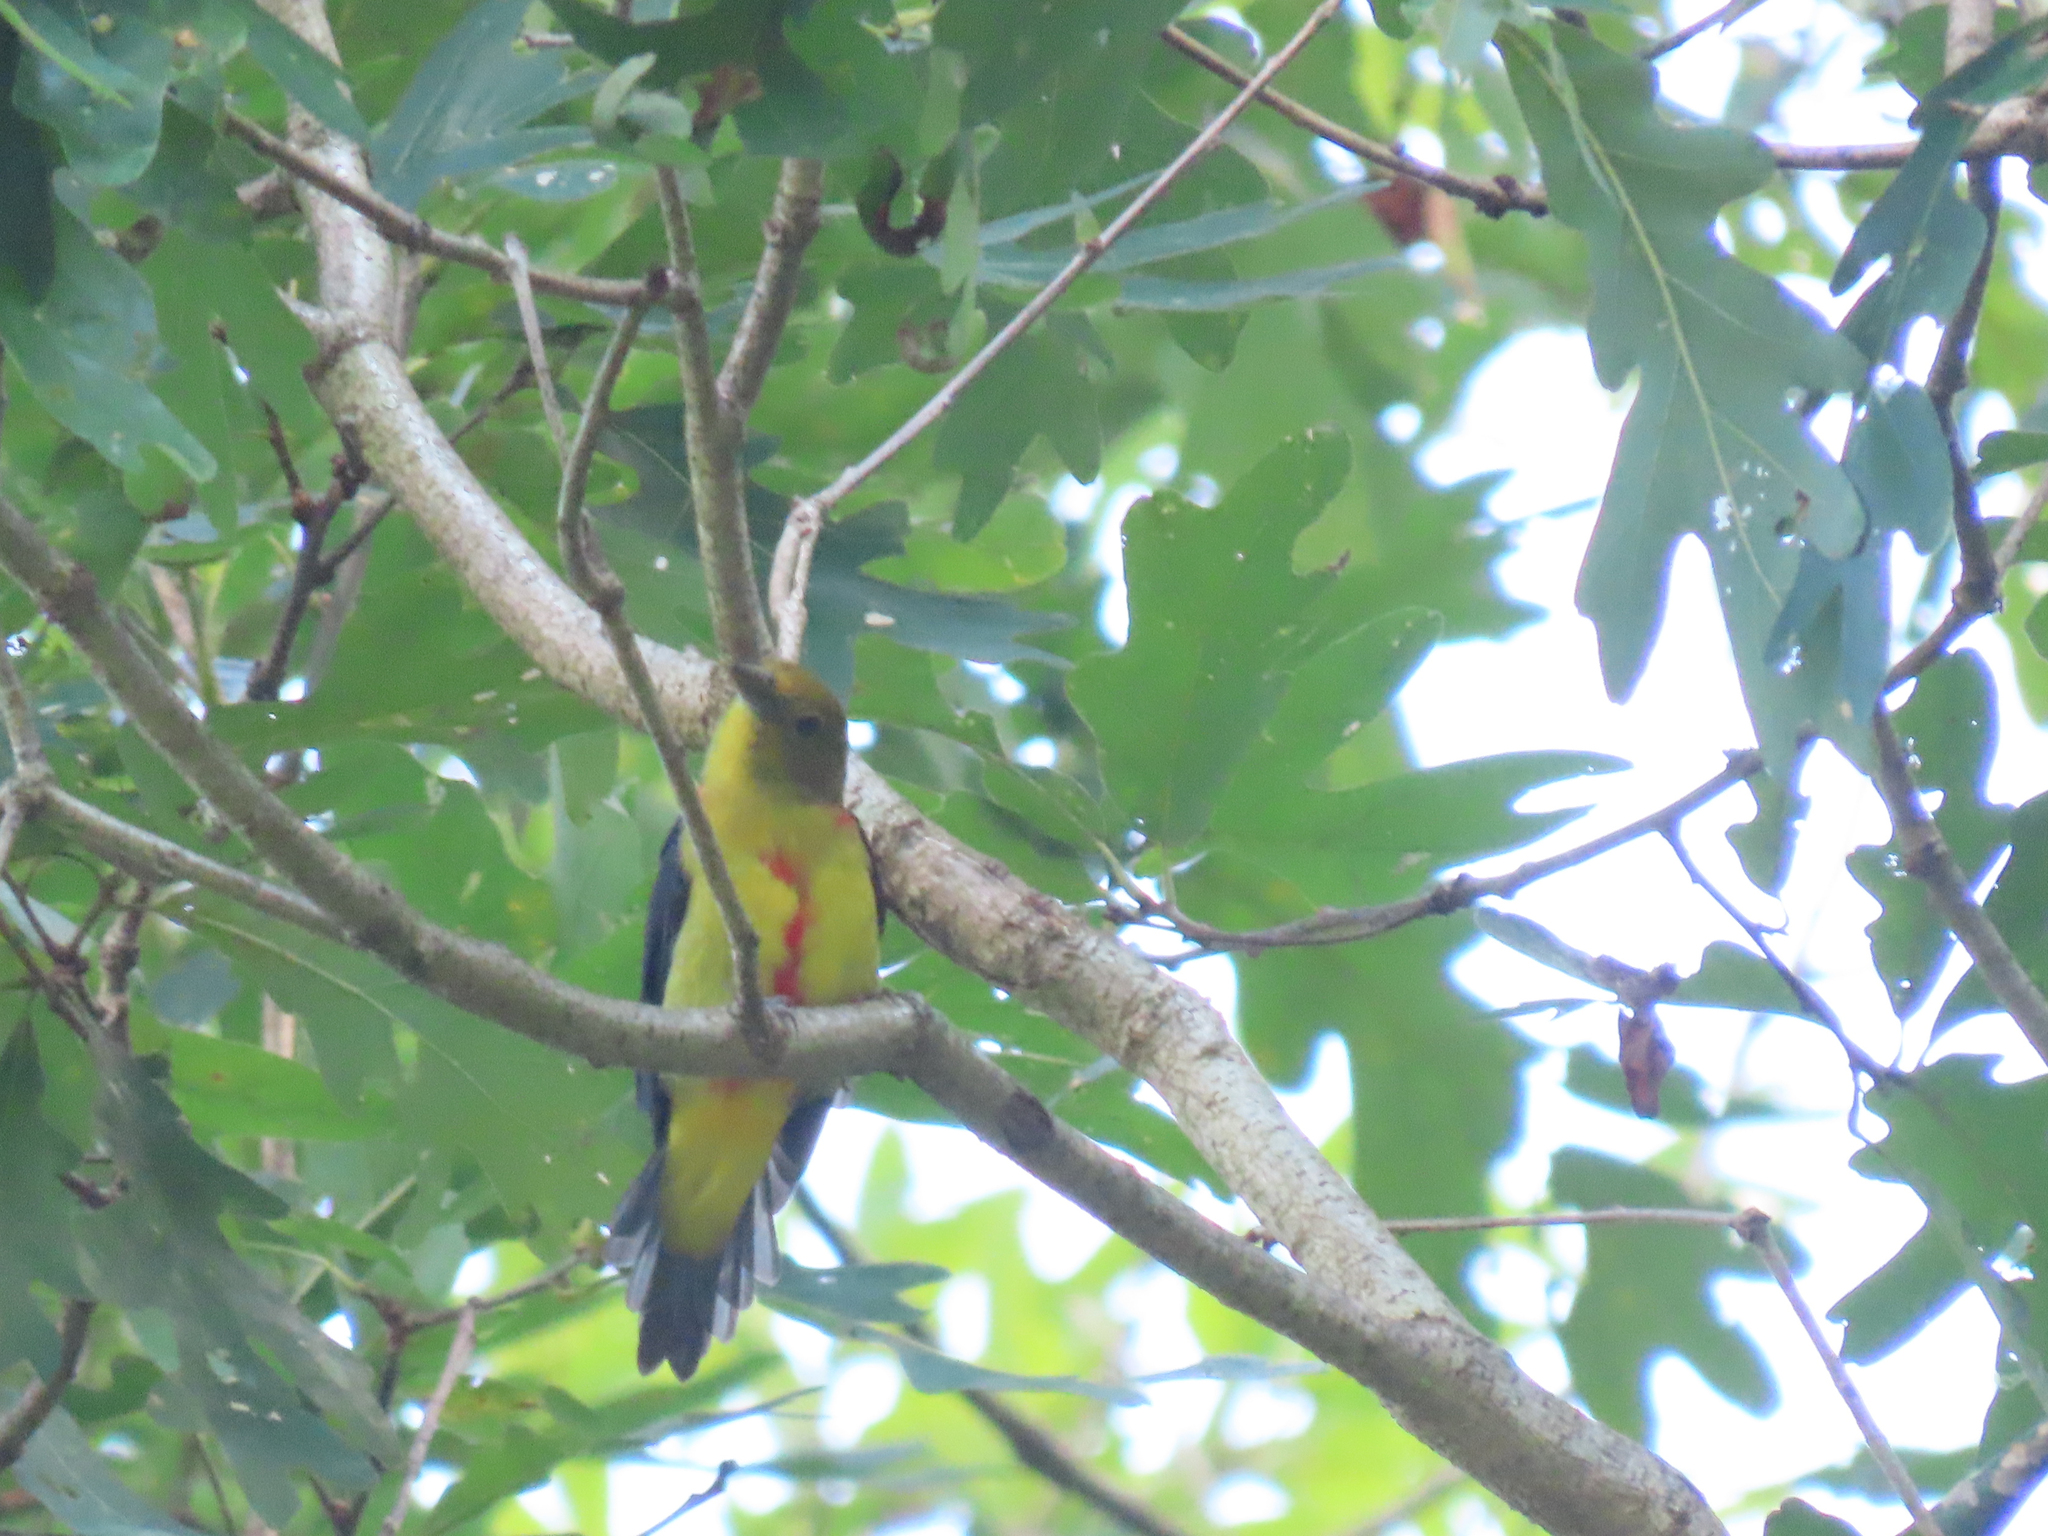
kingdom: Animalia
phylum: Chordata
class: Aves
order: Passeriformes
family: Cardinalidae
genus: Piranga
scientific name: Piranga olivacea
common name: Scarlet tanager
